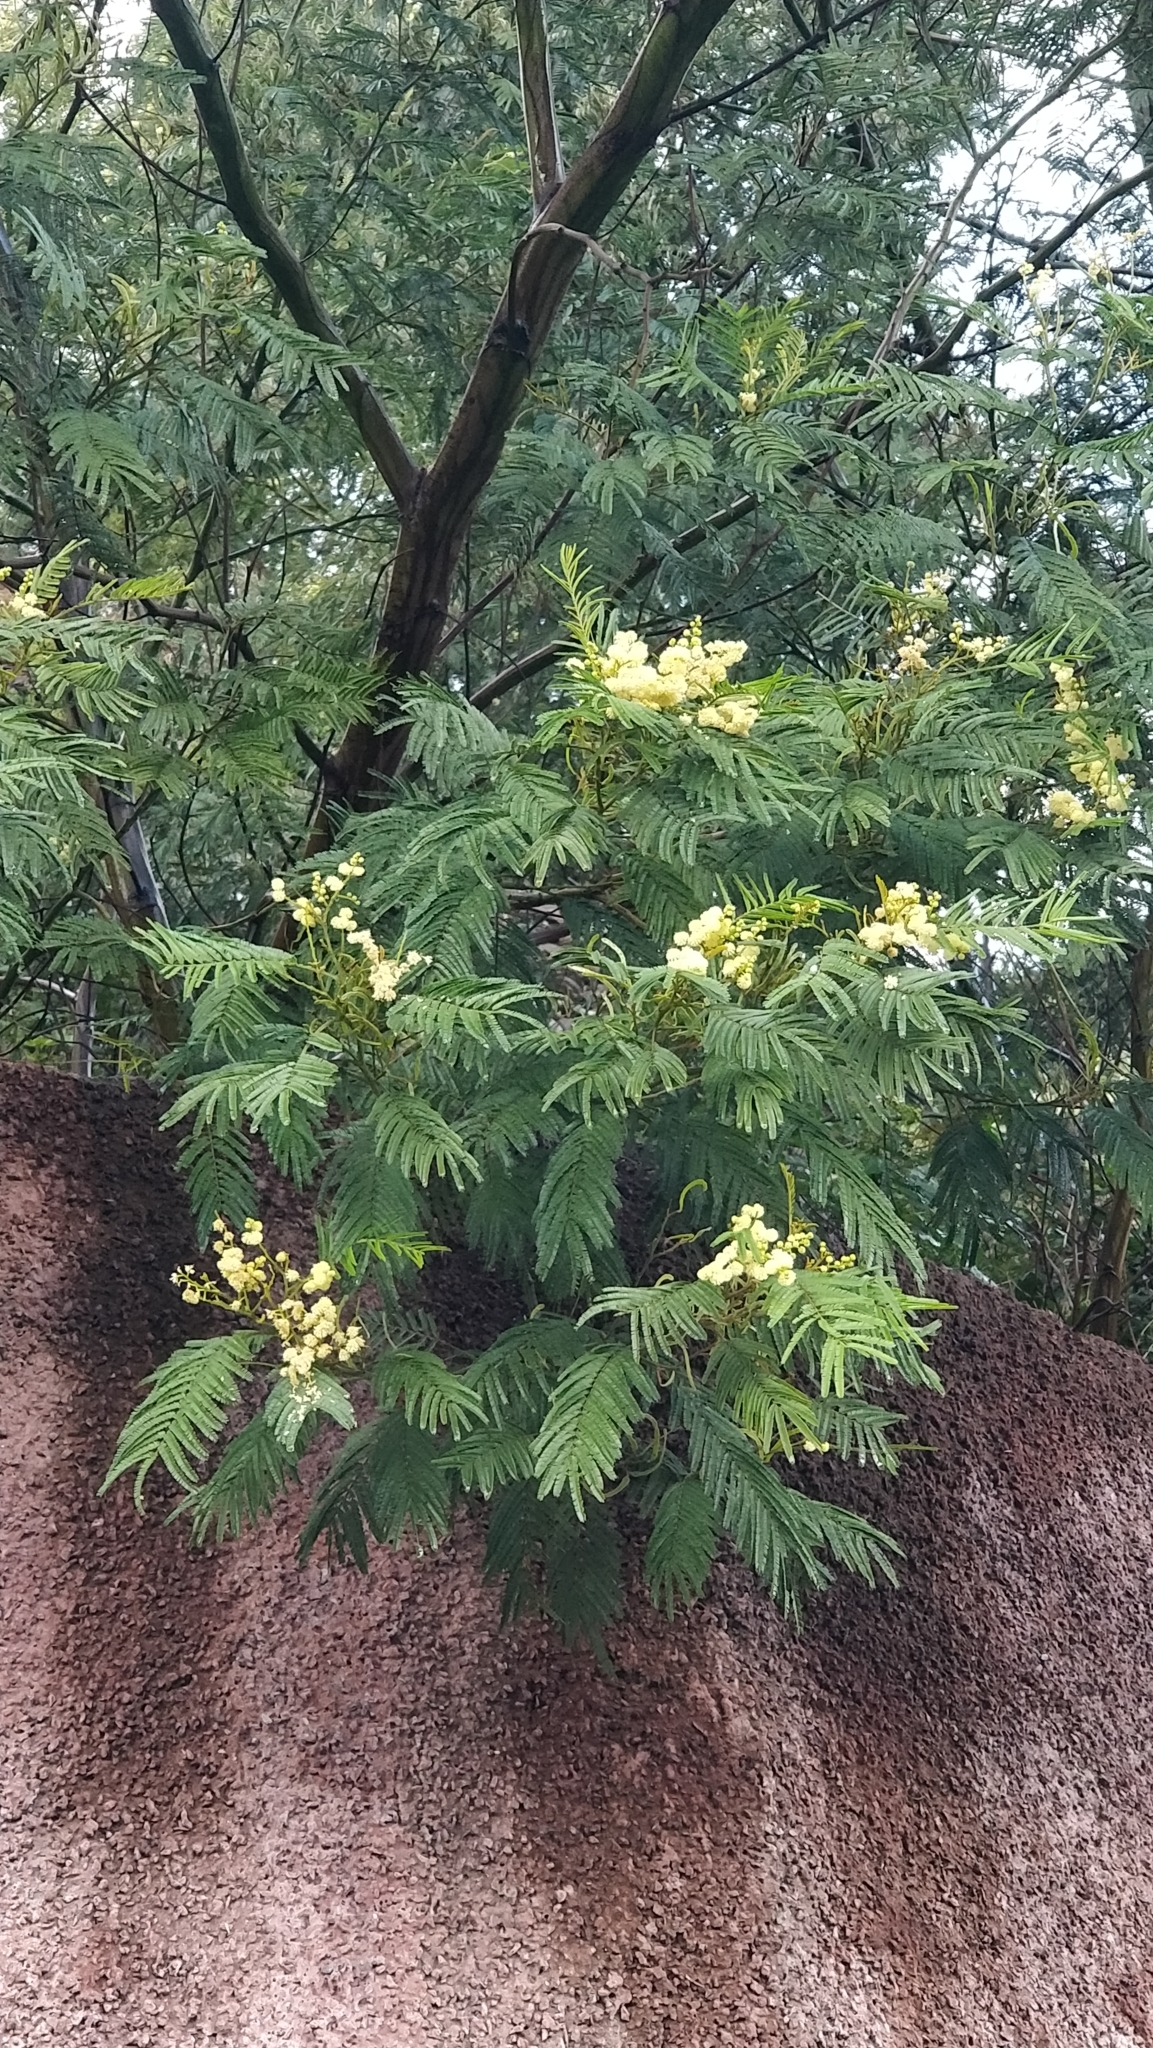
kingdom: Plantae
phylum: Tracheophyta
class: Magnoliopsida
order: Fabales
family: Fabaceae
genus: Acacia
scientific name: Acacia mearnsii
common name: Black wattle
